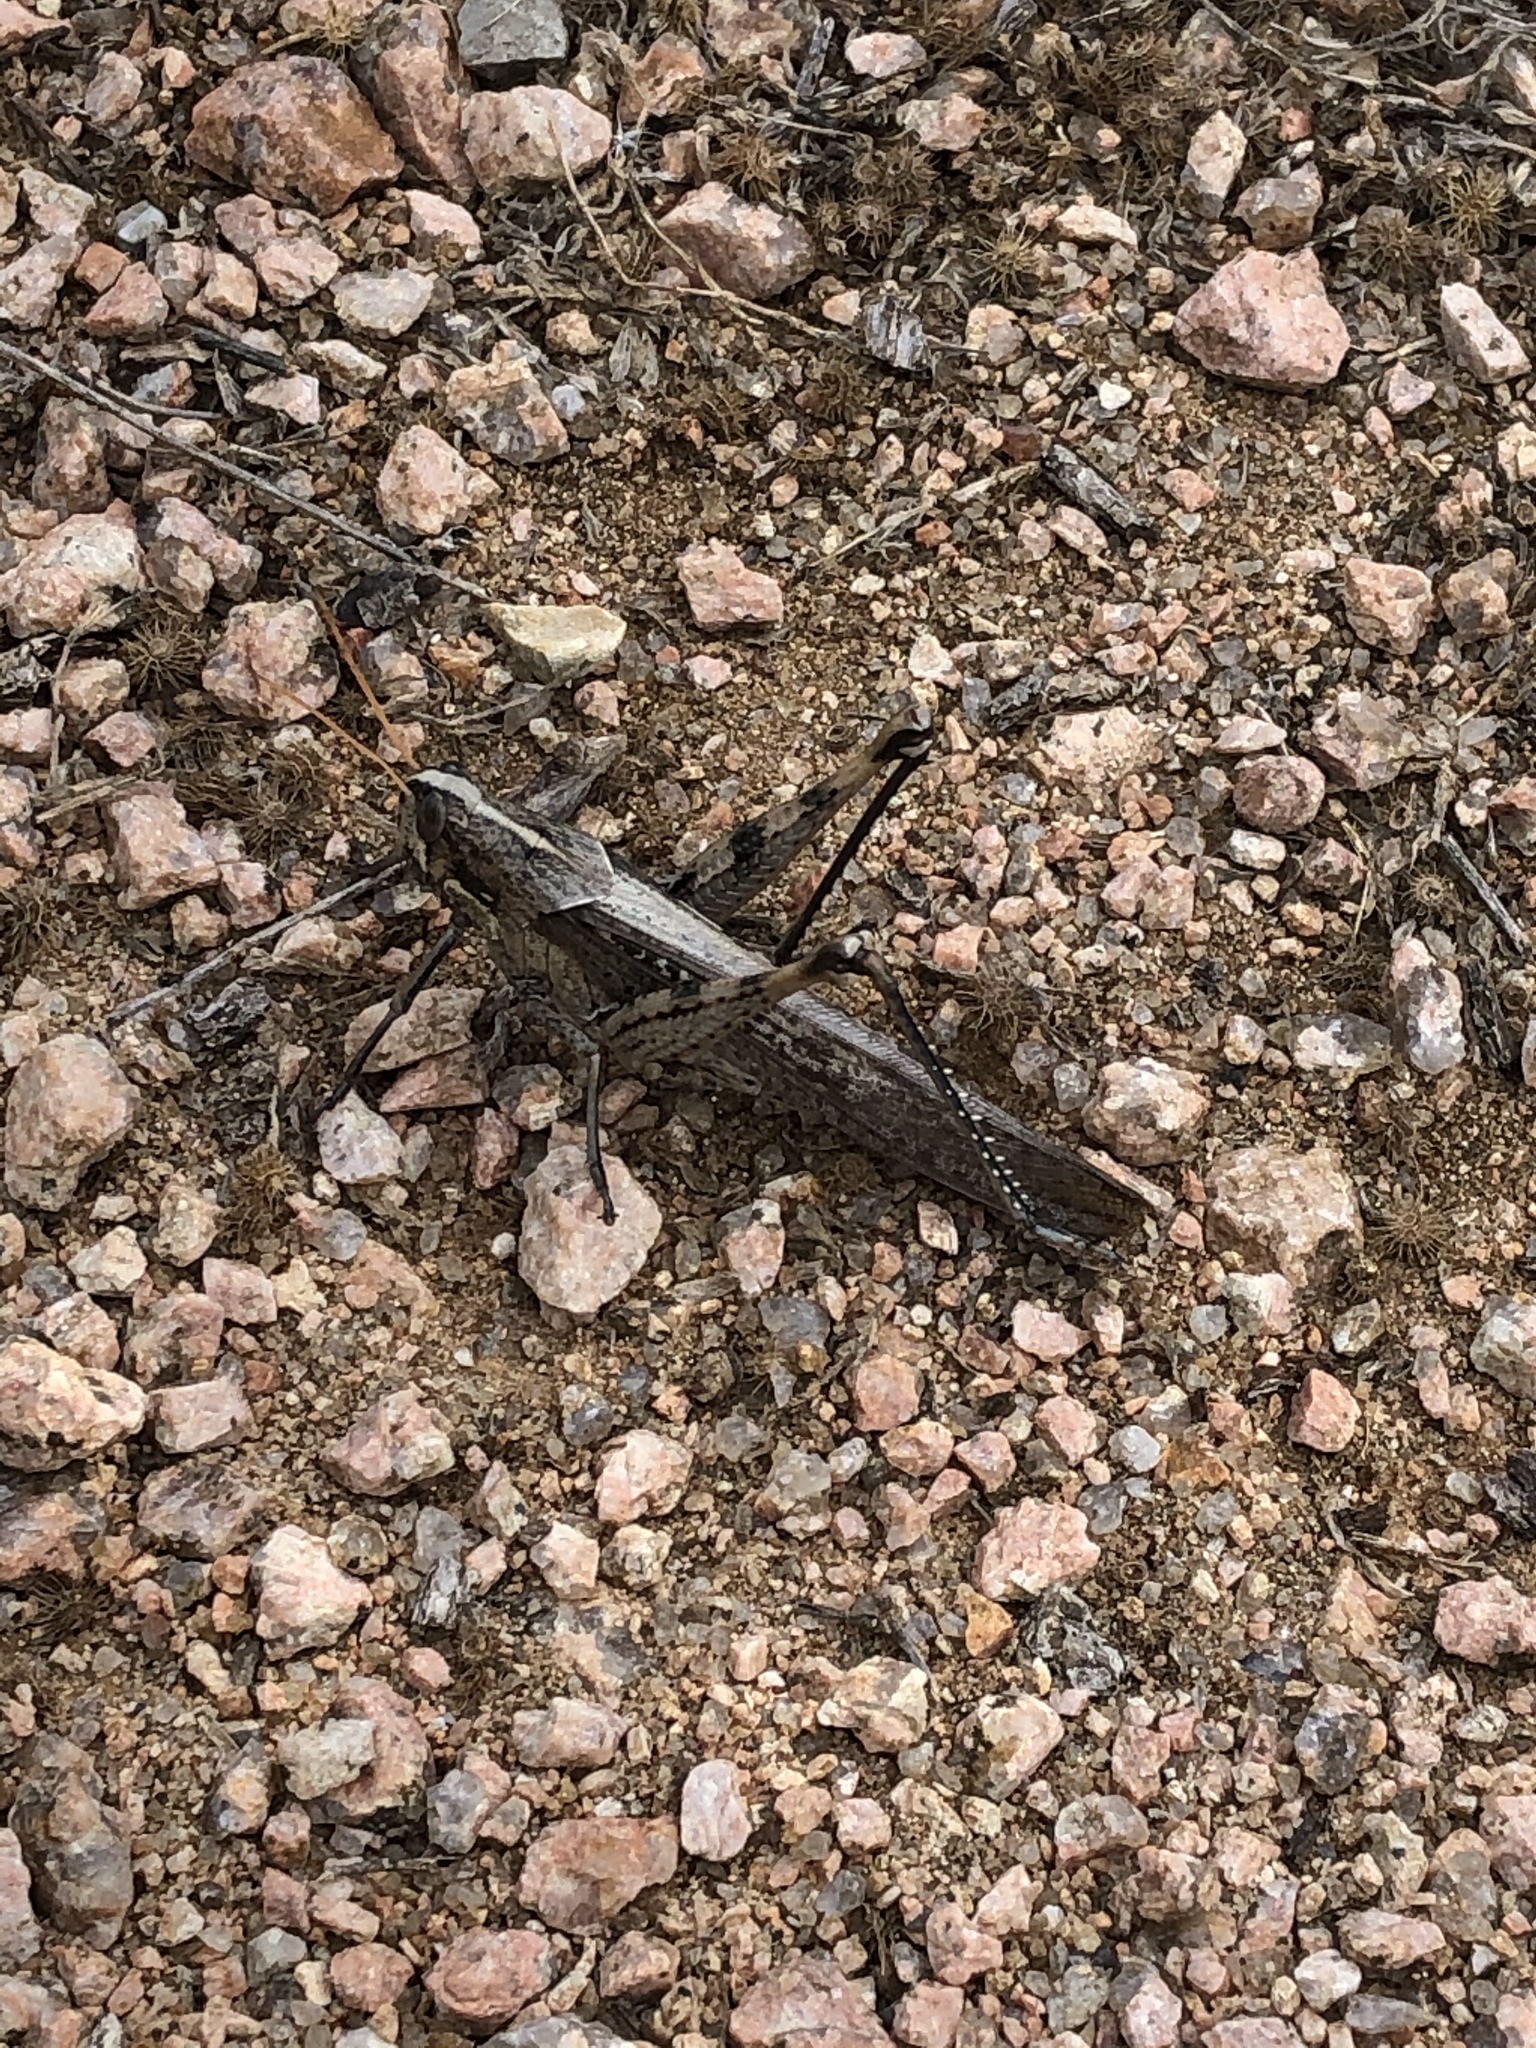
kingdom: Animalia
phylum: Arthropoda
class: Insecta
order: Orthoptera
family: Acrididae
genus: Schistocerca
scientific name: Schistocerca nitens
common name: Vagrant grasshopper
